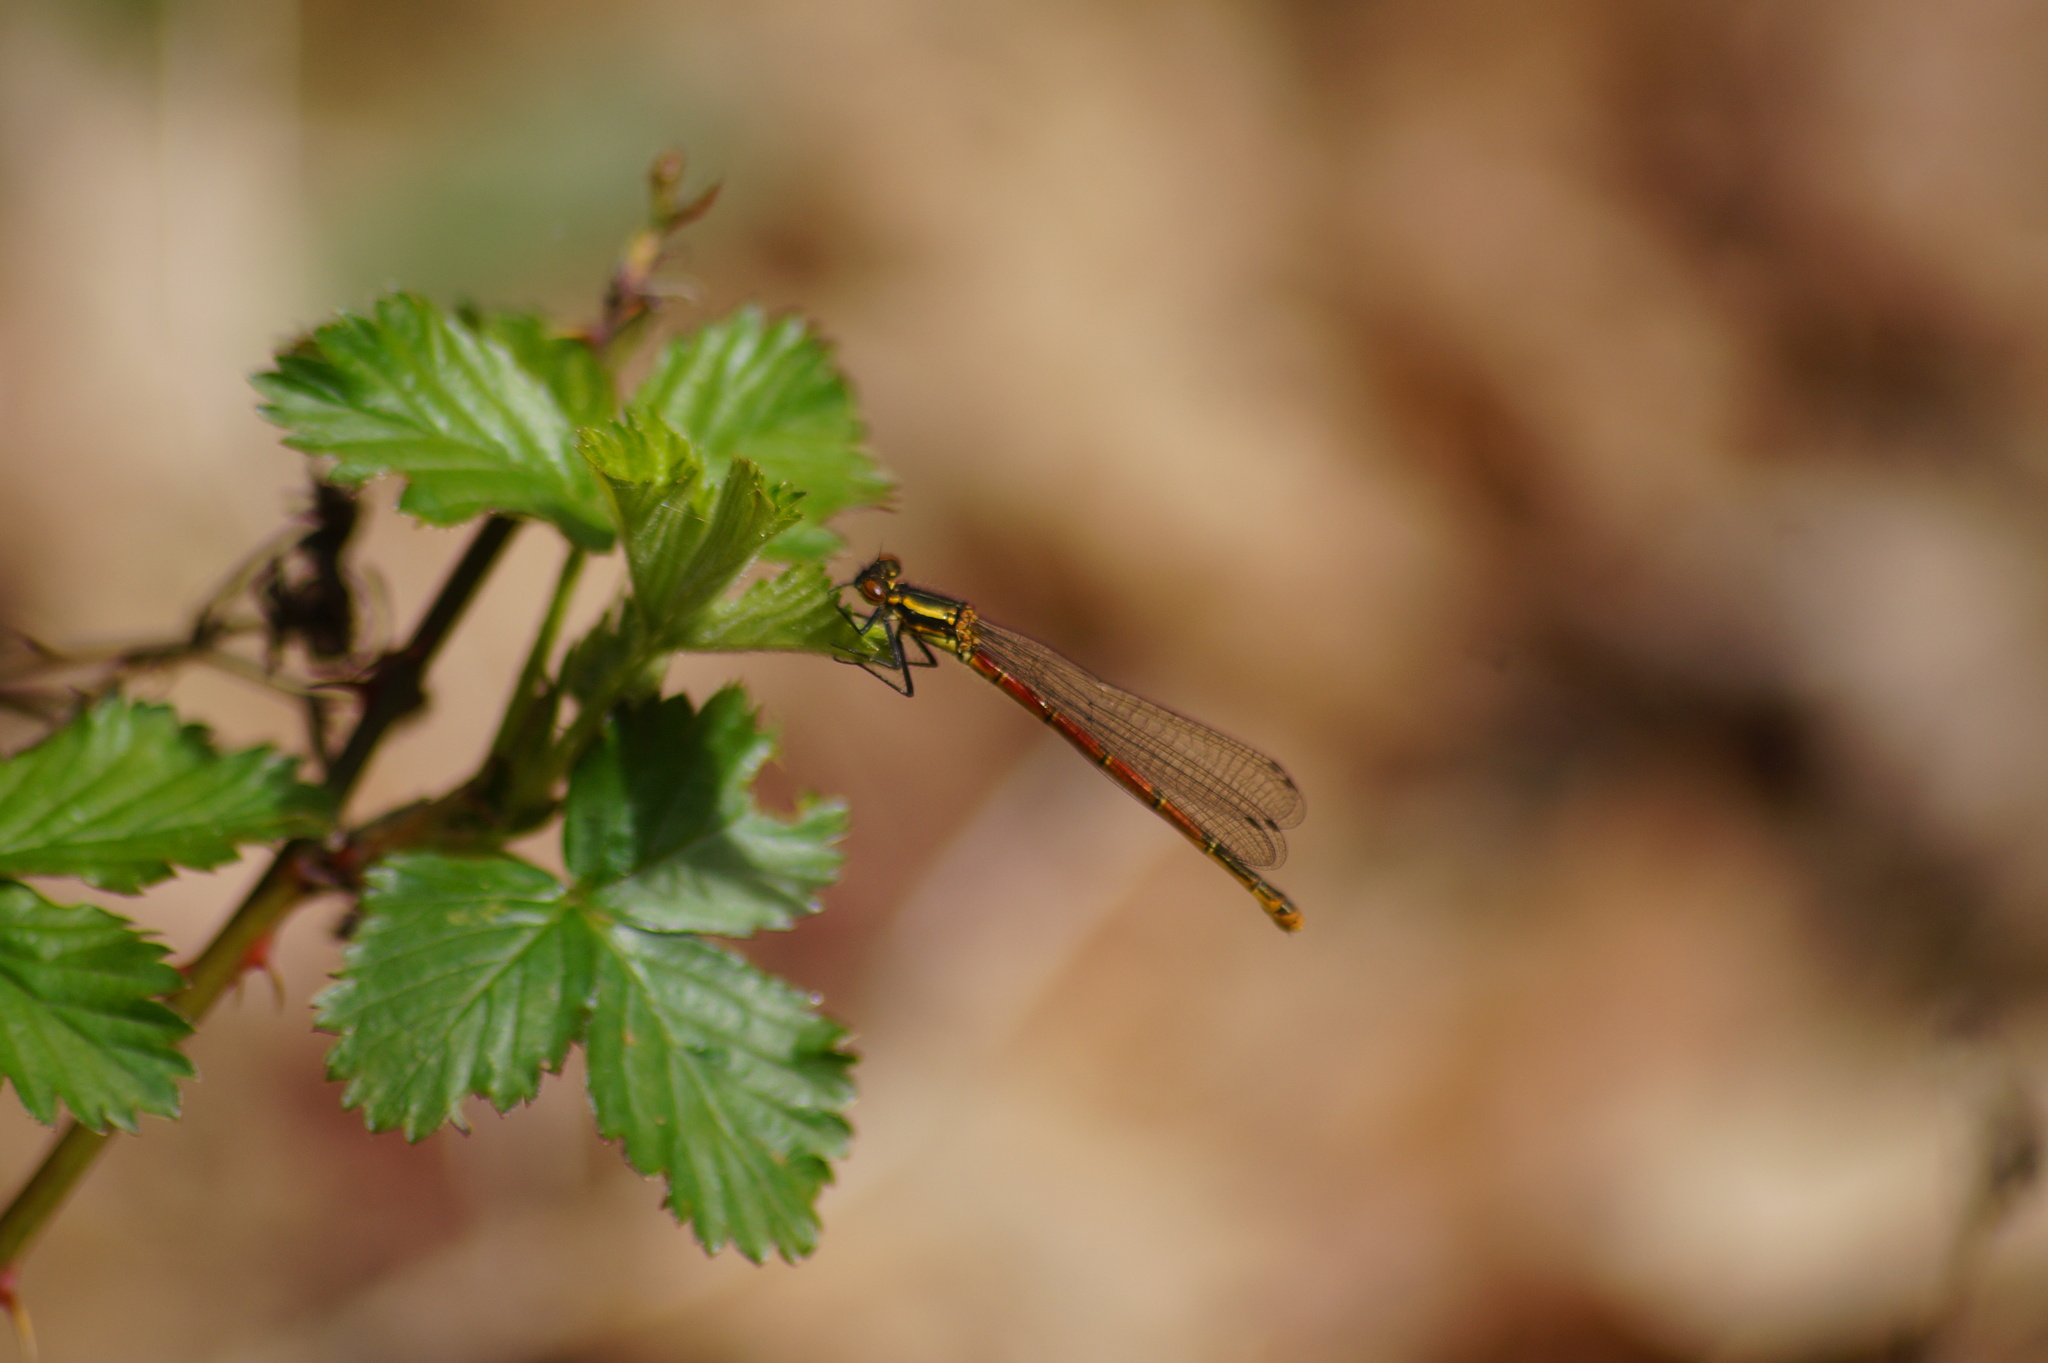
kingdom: Animalia
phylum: Arthropoda
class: Insecta
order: Odonata
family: Coenagrionidae
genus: Pyrrhosoma
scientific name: Pyrrhosoma nymphula
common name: Large red damsel
